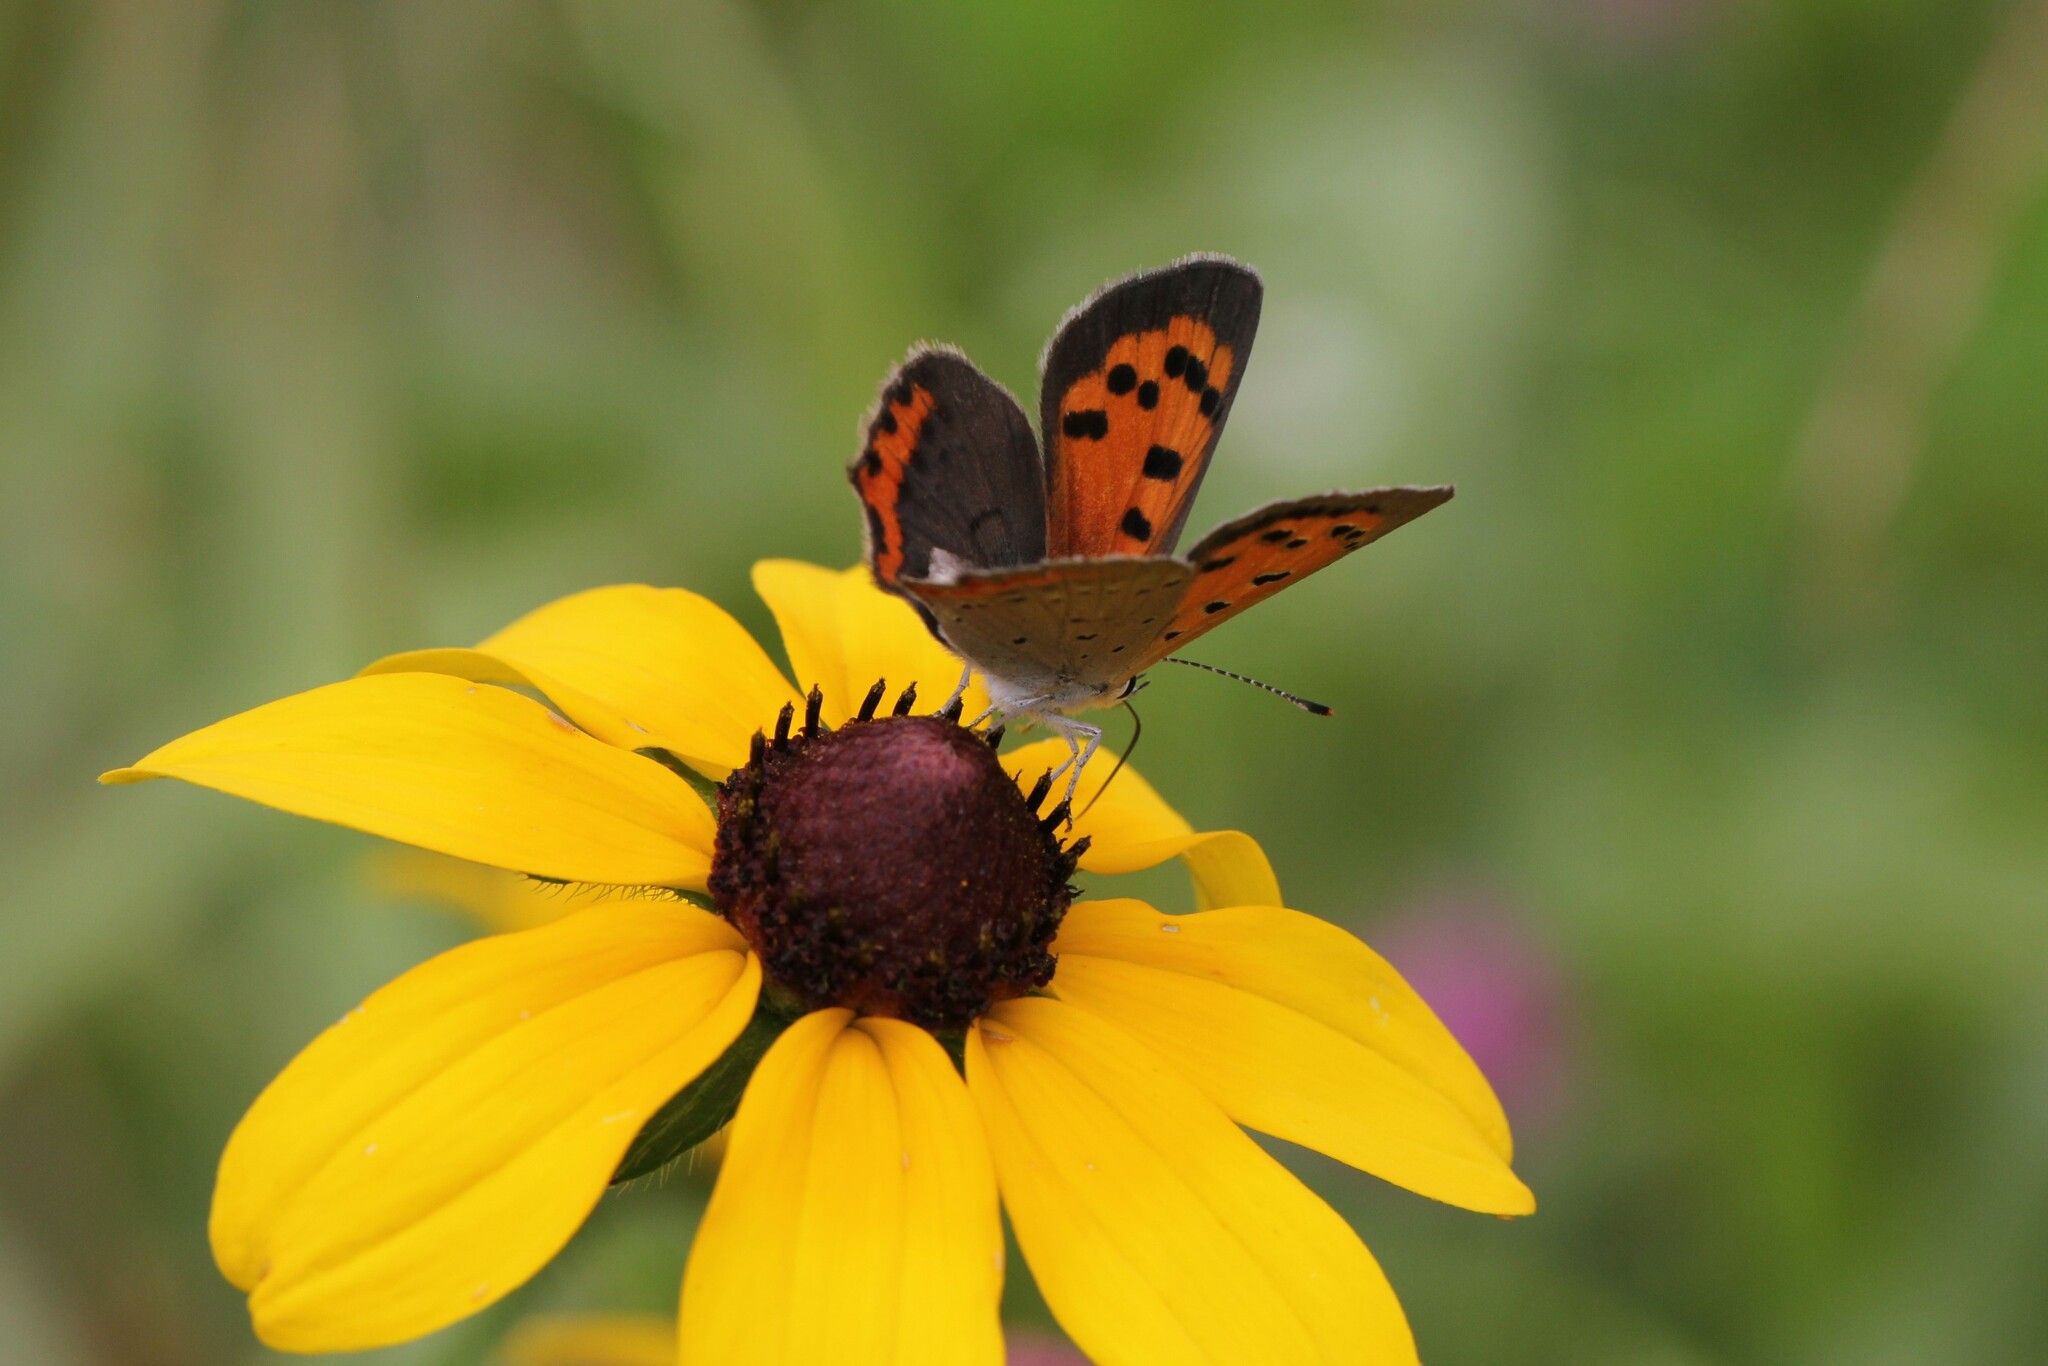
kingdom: Animalia
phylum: Arthropoda
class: Insecta
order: Lepidoptera
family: Lycaenidae
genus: Lycaena
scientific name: Lycaena hypophlaeas
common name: American copper
